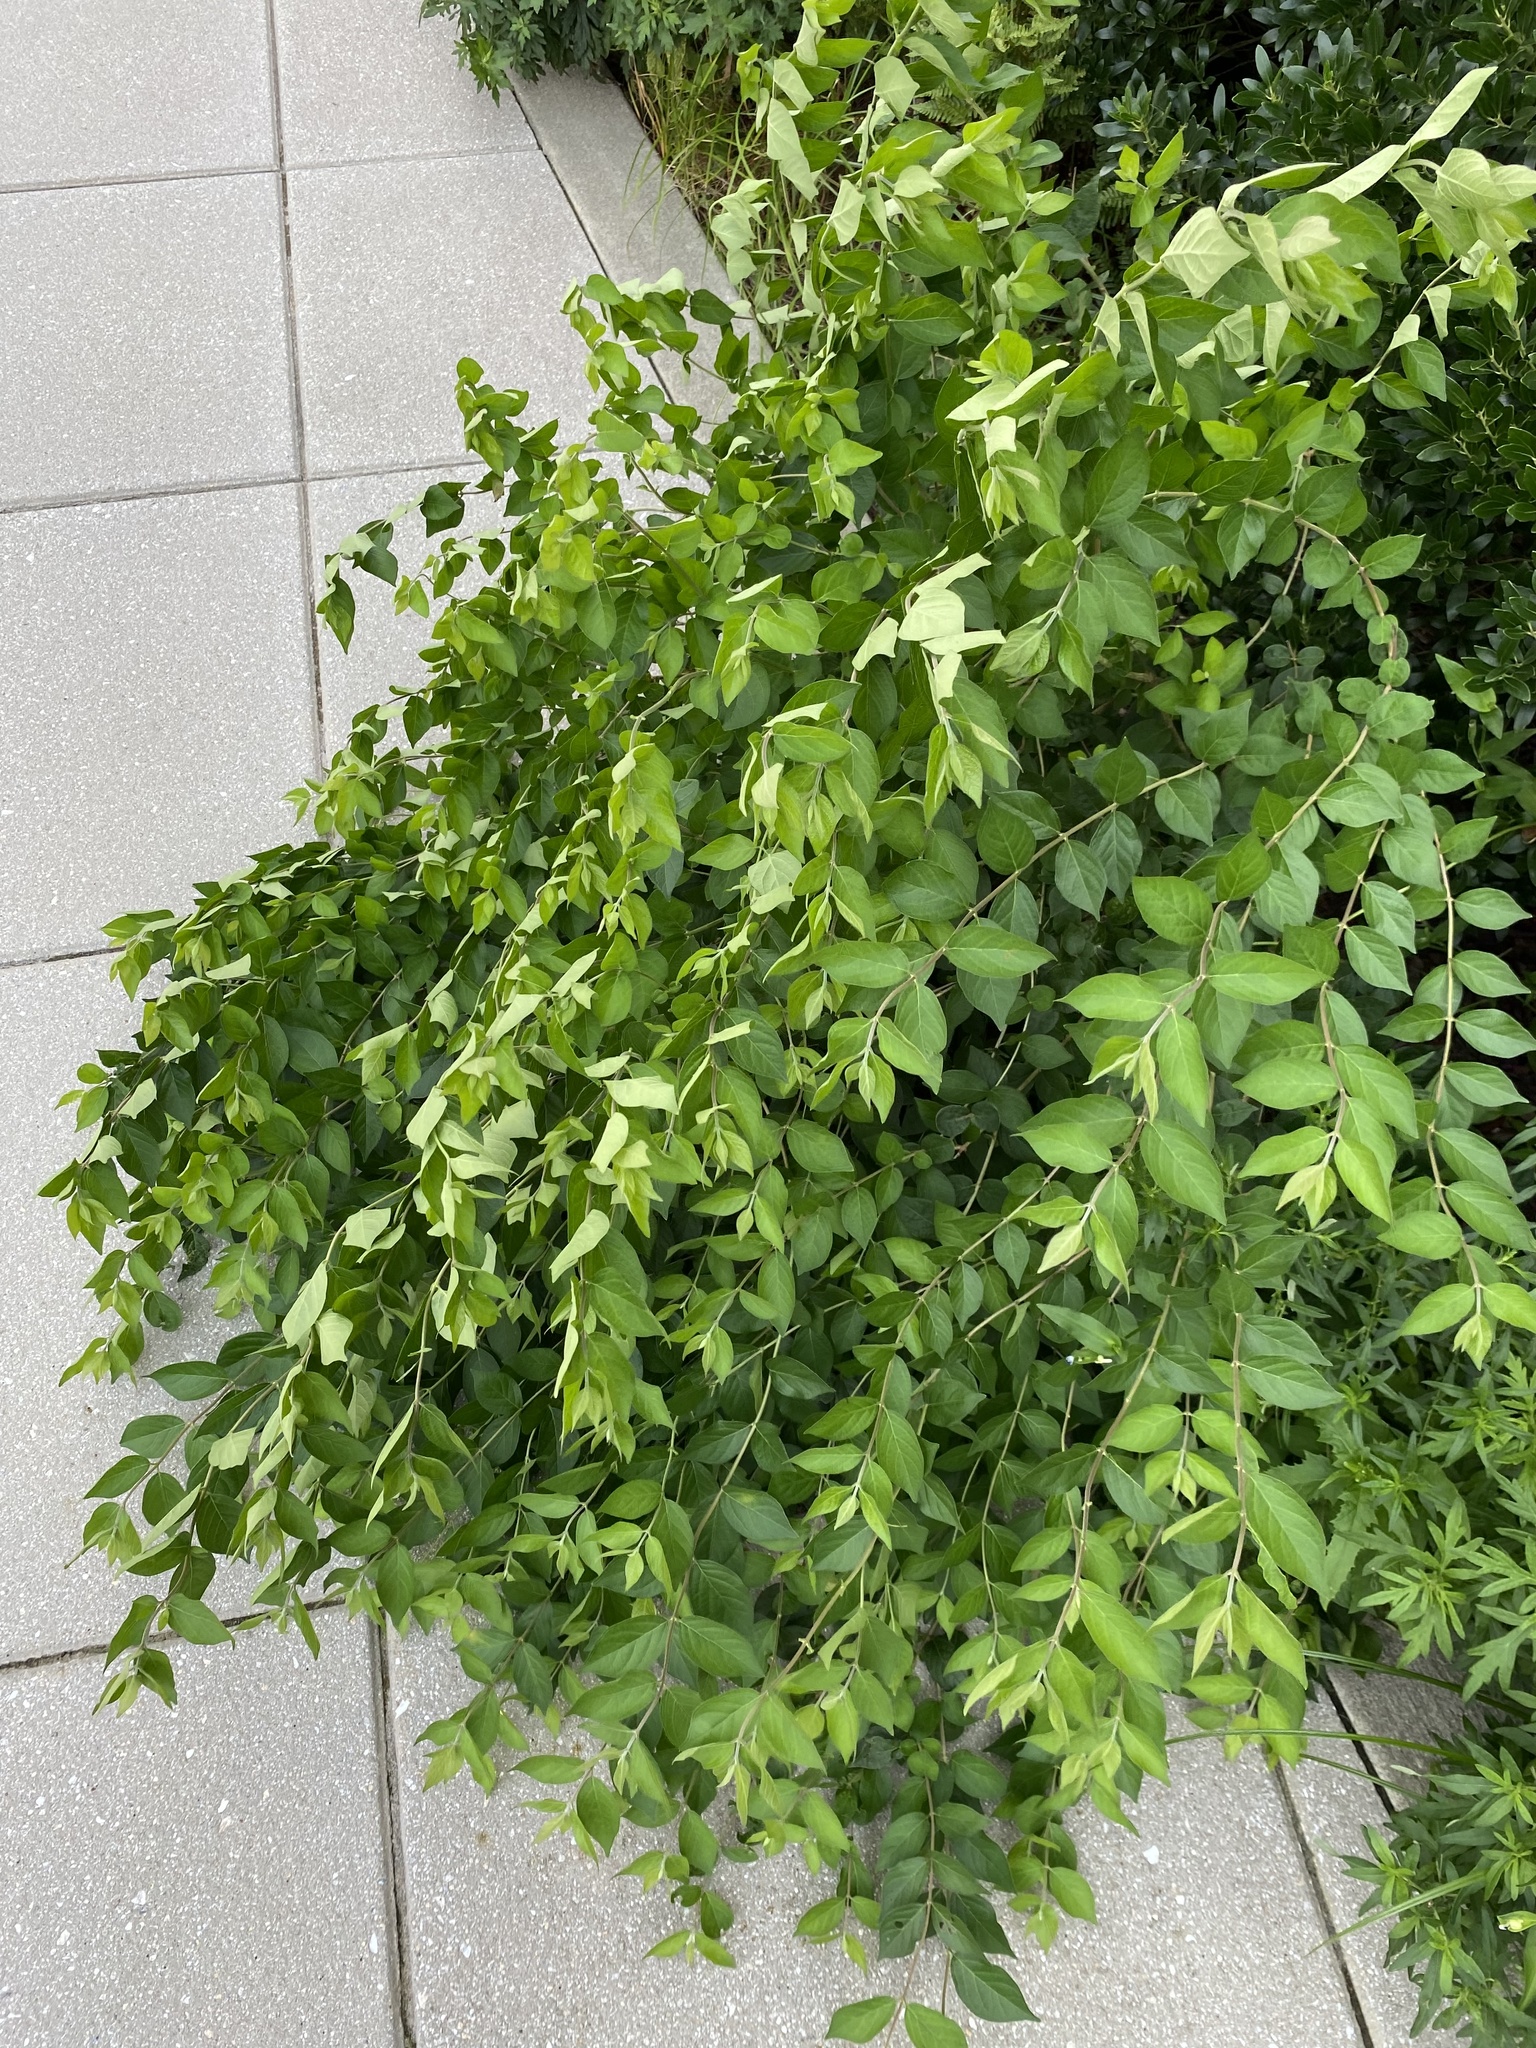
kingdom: Plantae
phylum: Tracheophyta
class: Magnoliopsida
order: Dipsacales
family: Caprifoliaceae
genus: Lonicera
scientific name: Lonicera maackii
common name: Amur honeysuckle
